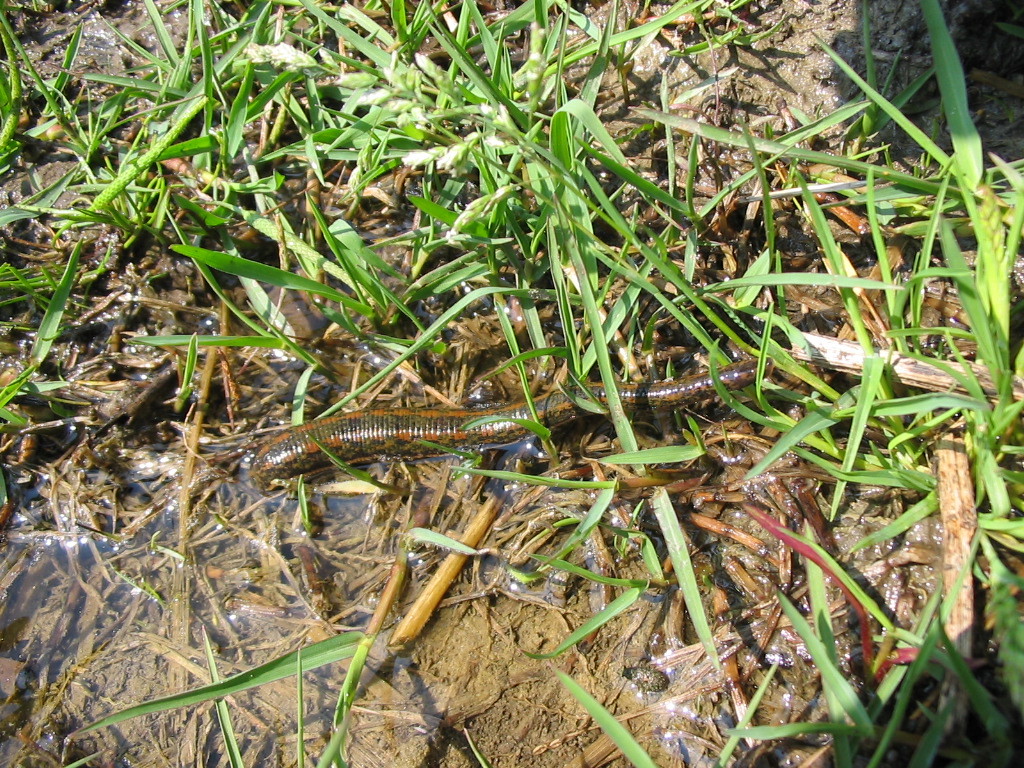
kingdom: Animalia
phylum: Annelida
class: Clitellata
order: Arhynchobdellida
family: Hirudinidae
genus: Hirudo
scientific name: Hirudo verbana
